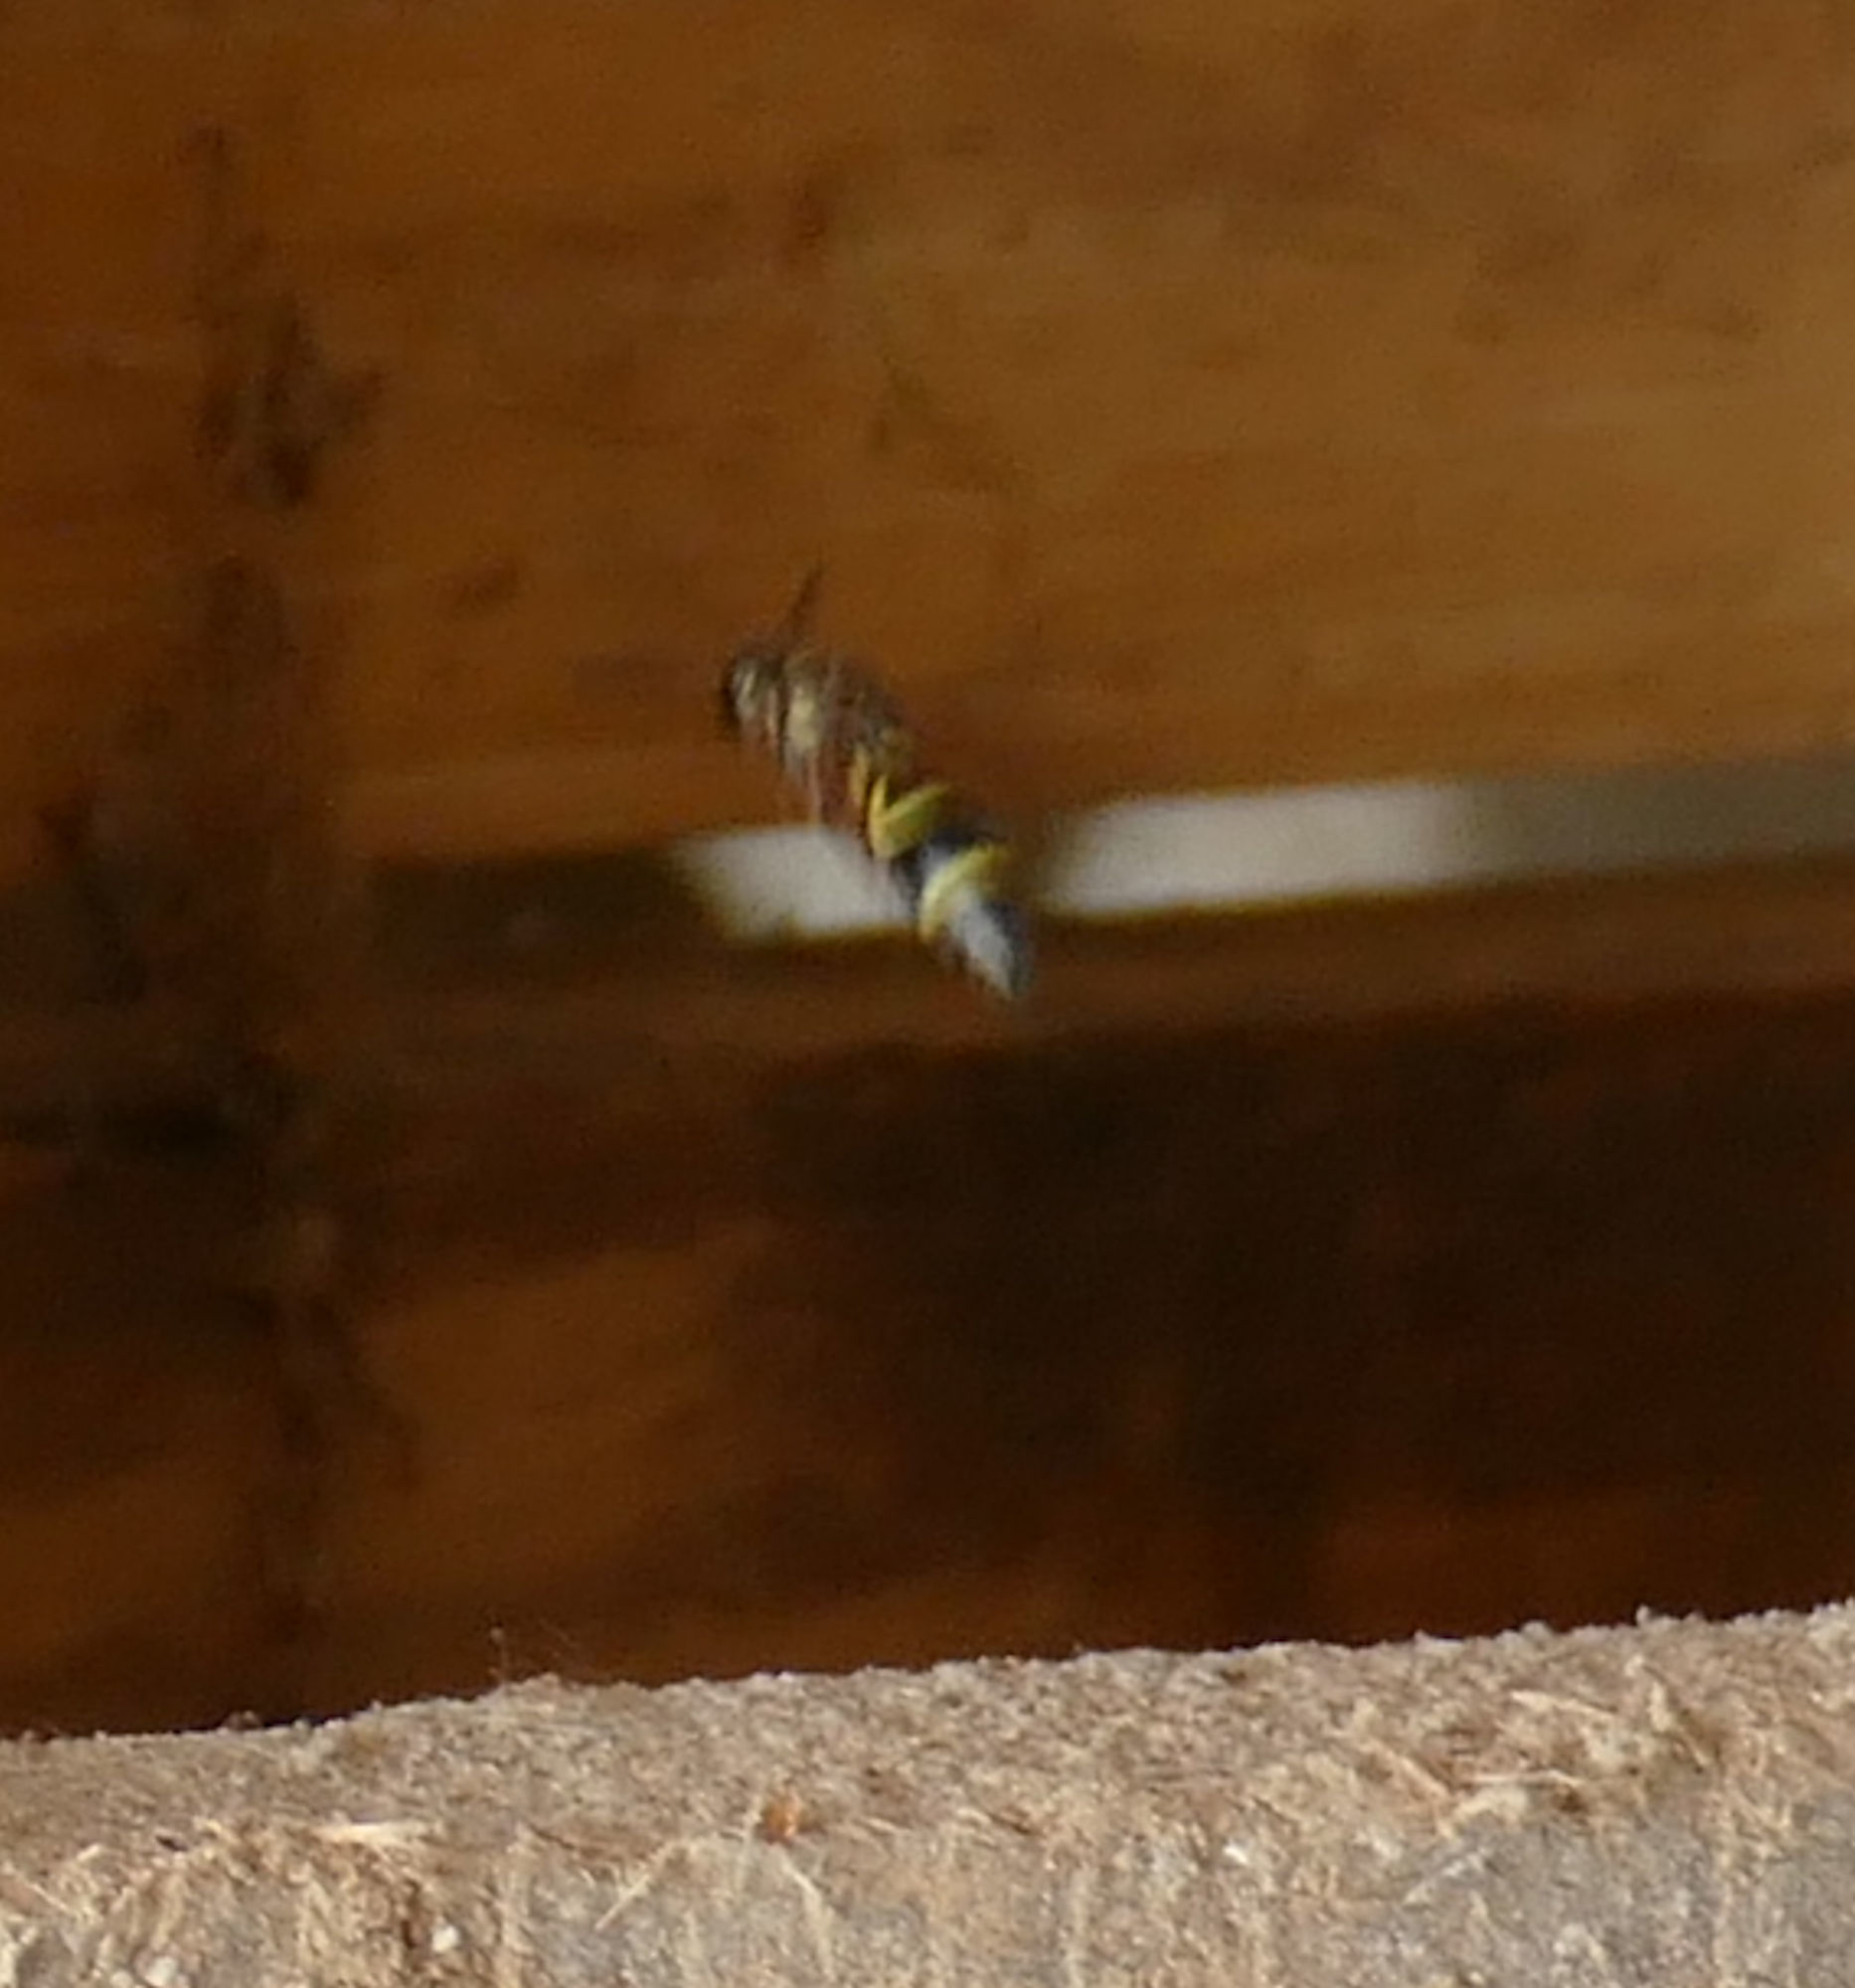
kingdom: Animalia
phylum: Arthropoda
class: Insecta
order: Hymenoptera
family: Eumenidae
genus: Parancistrocerus
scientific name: Parancistrocerus fulvipes
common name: Potter wasp
